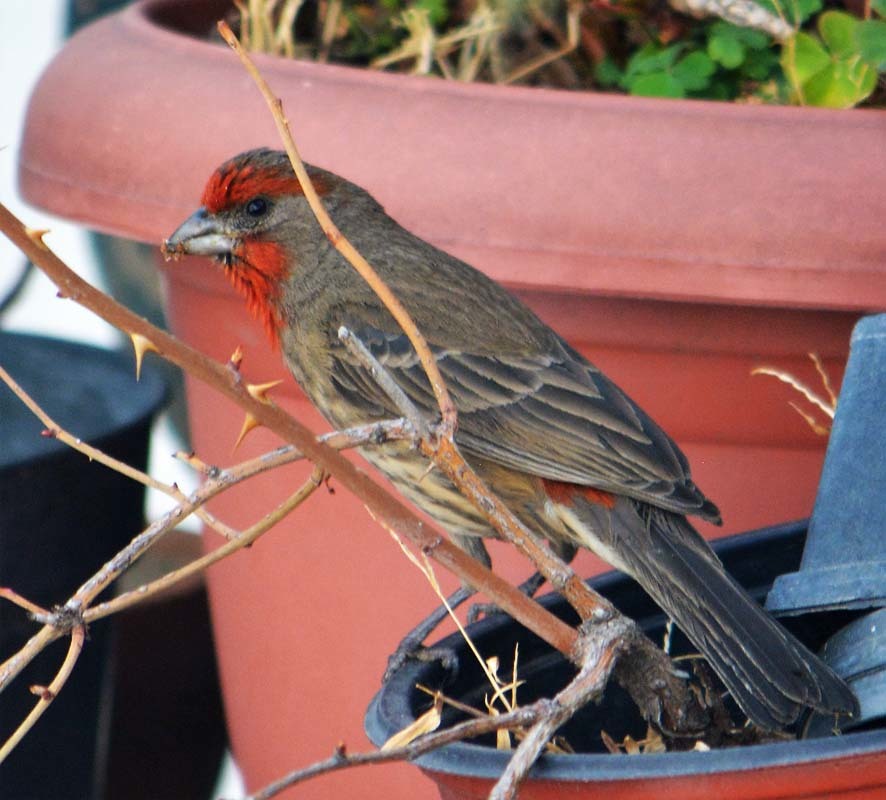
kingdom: Animalia
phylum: Chordata
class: Aves
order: Passeriformes
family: Fringillidae
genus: Haemorhous
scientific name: Haemorhous mexicanus
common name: House finch
